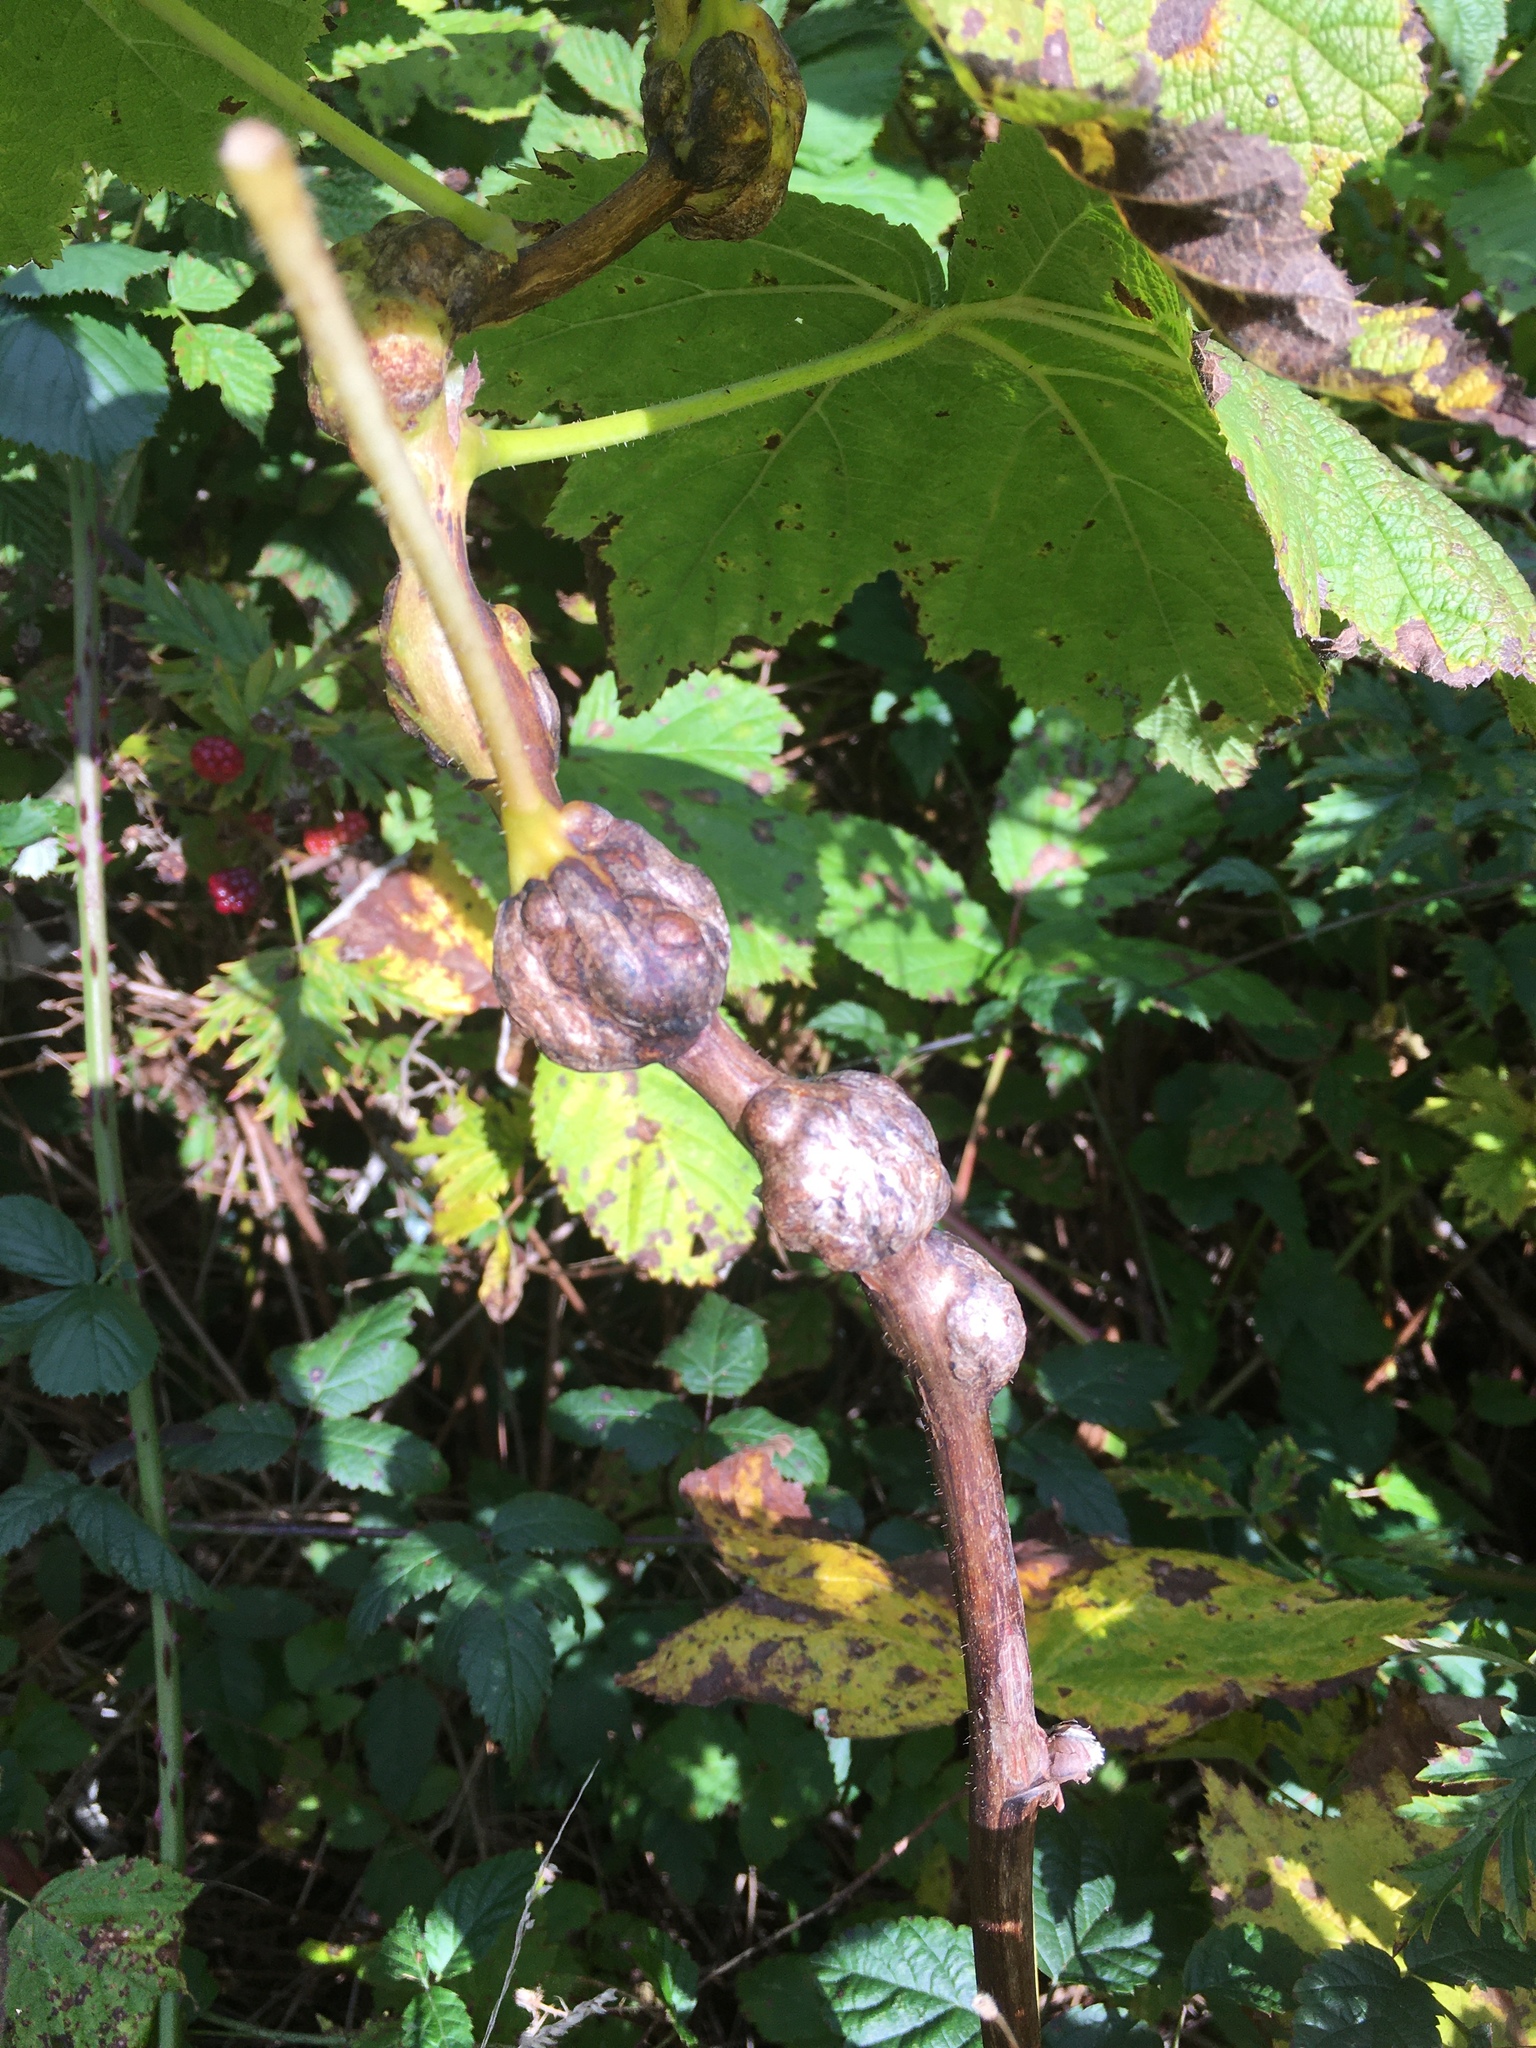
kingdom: Animalia
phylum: Arthropoda
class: Insecta
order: Hymenoptera
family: Cynipidae
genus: Diastrophus
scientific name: Diastrophus
